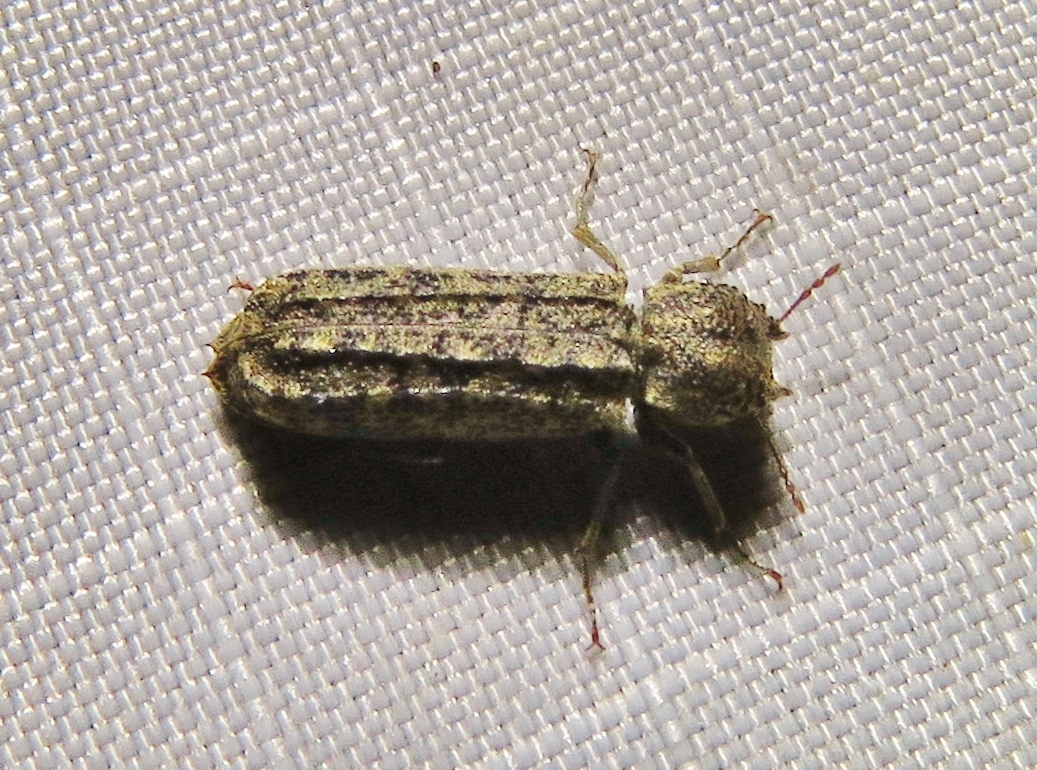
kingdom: Animalia
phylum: Arthropoda
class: Insecta
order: Coleoptera
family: Bostrichidae
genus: Lichenophanes
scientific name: Lichenophanes bicornis
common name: Two-horned powder-post beetle
